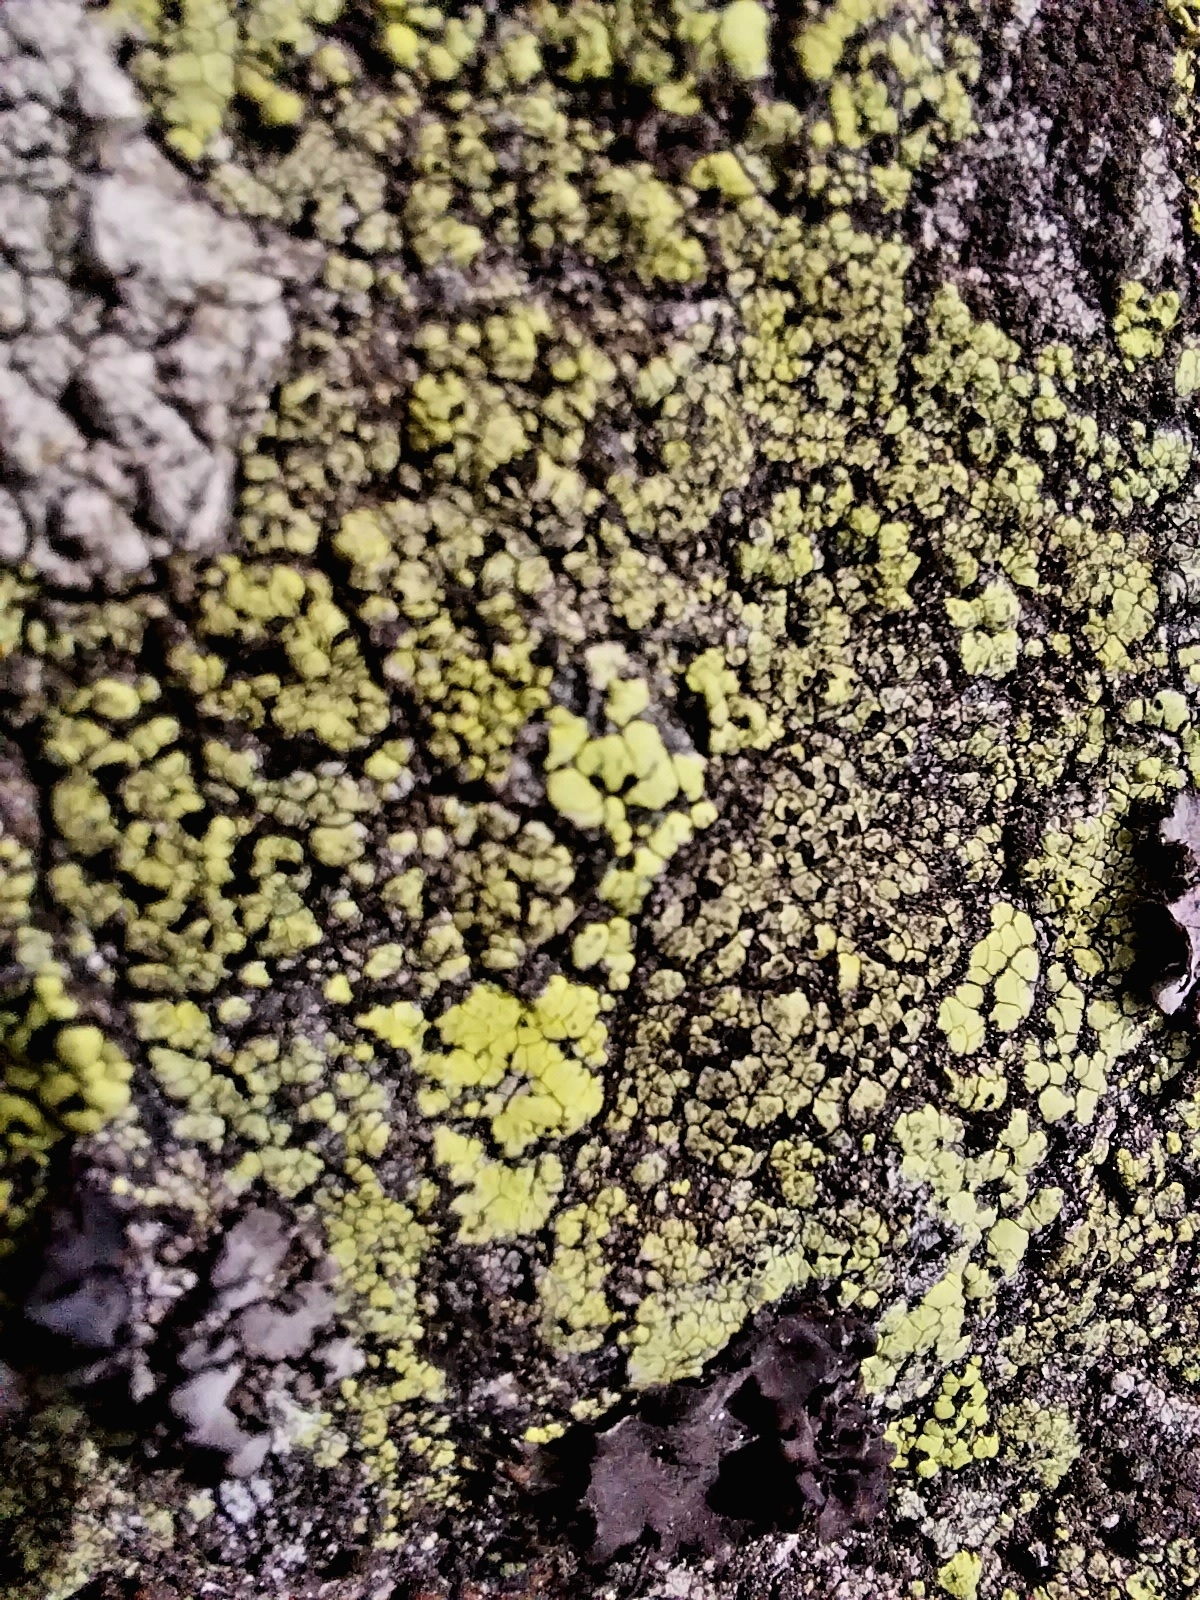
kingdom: Fungi
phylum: Ascomycota
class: Lecanoromycetes
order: Rhizocarpales
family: Rhizocarpaceae
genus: Rhizocarpon
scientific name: Rhizocarpon geographicum
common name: Yellow map lichen
